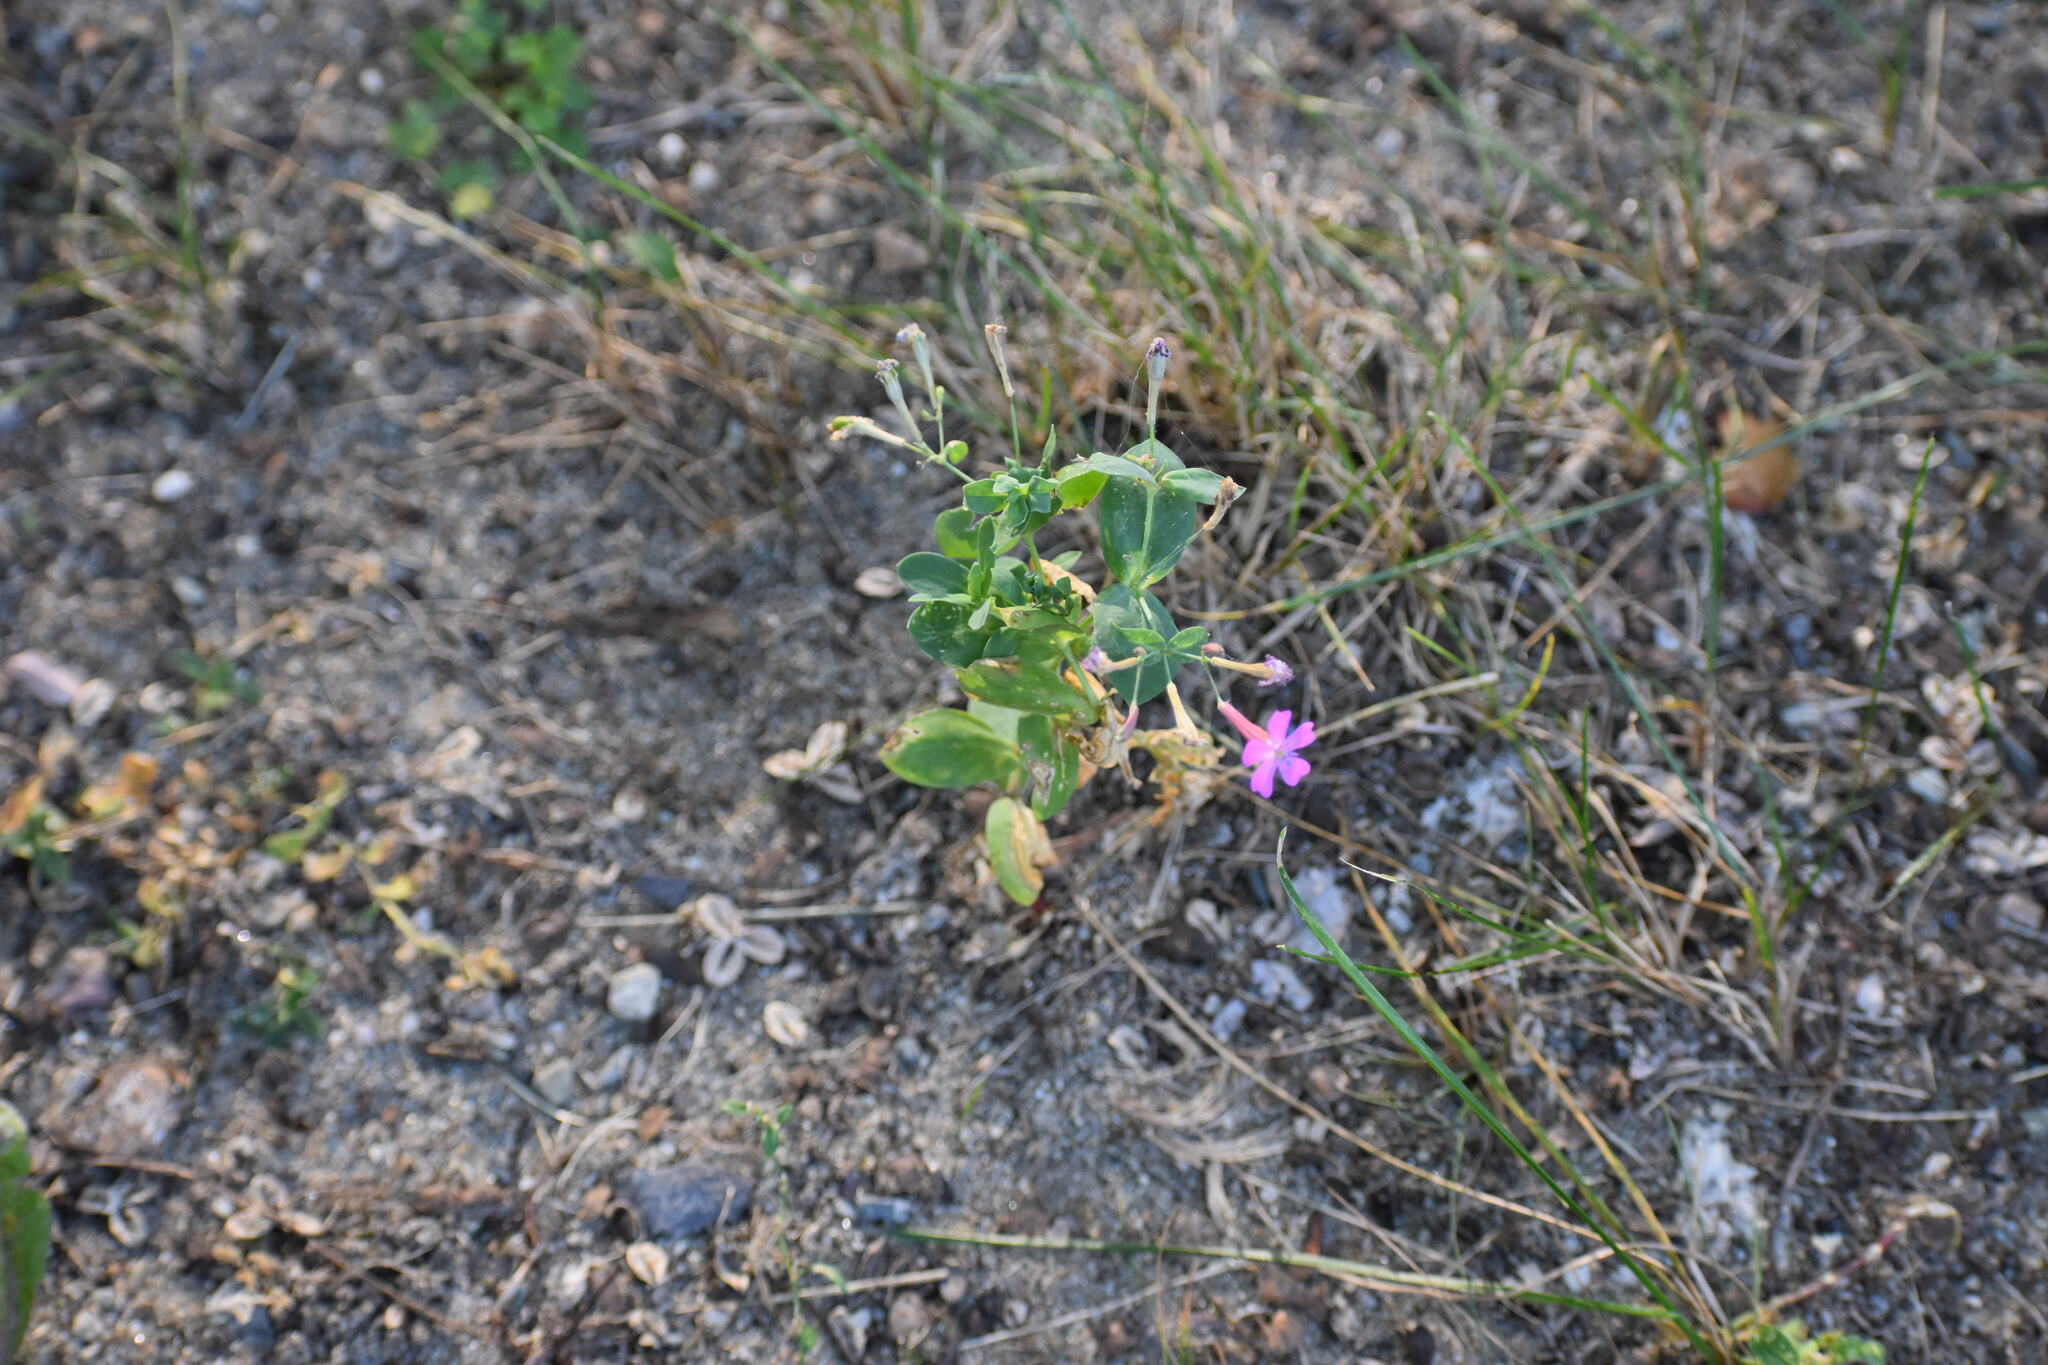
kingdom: Plantae
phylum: Tracheophyta
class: Magnoliopsida
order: Caryophyllales
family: Caryophyllaceae
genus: Atocion
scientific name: Atocion armeria
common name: Sweet william catchfly
